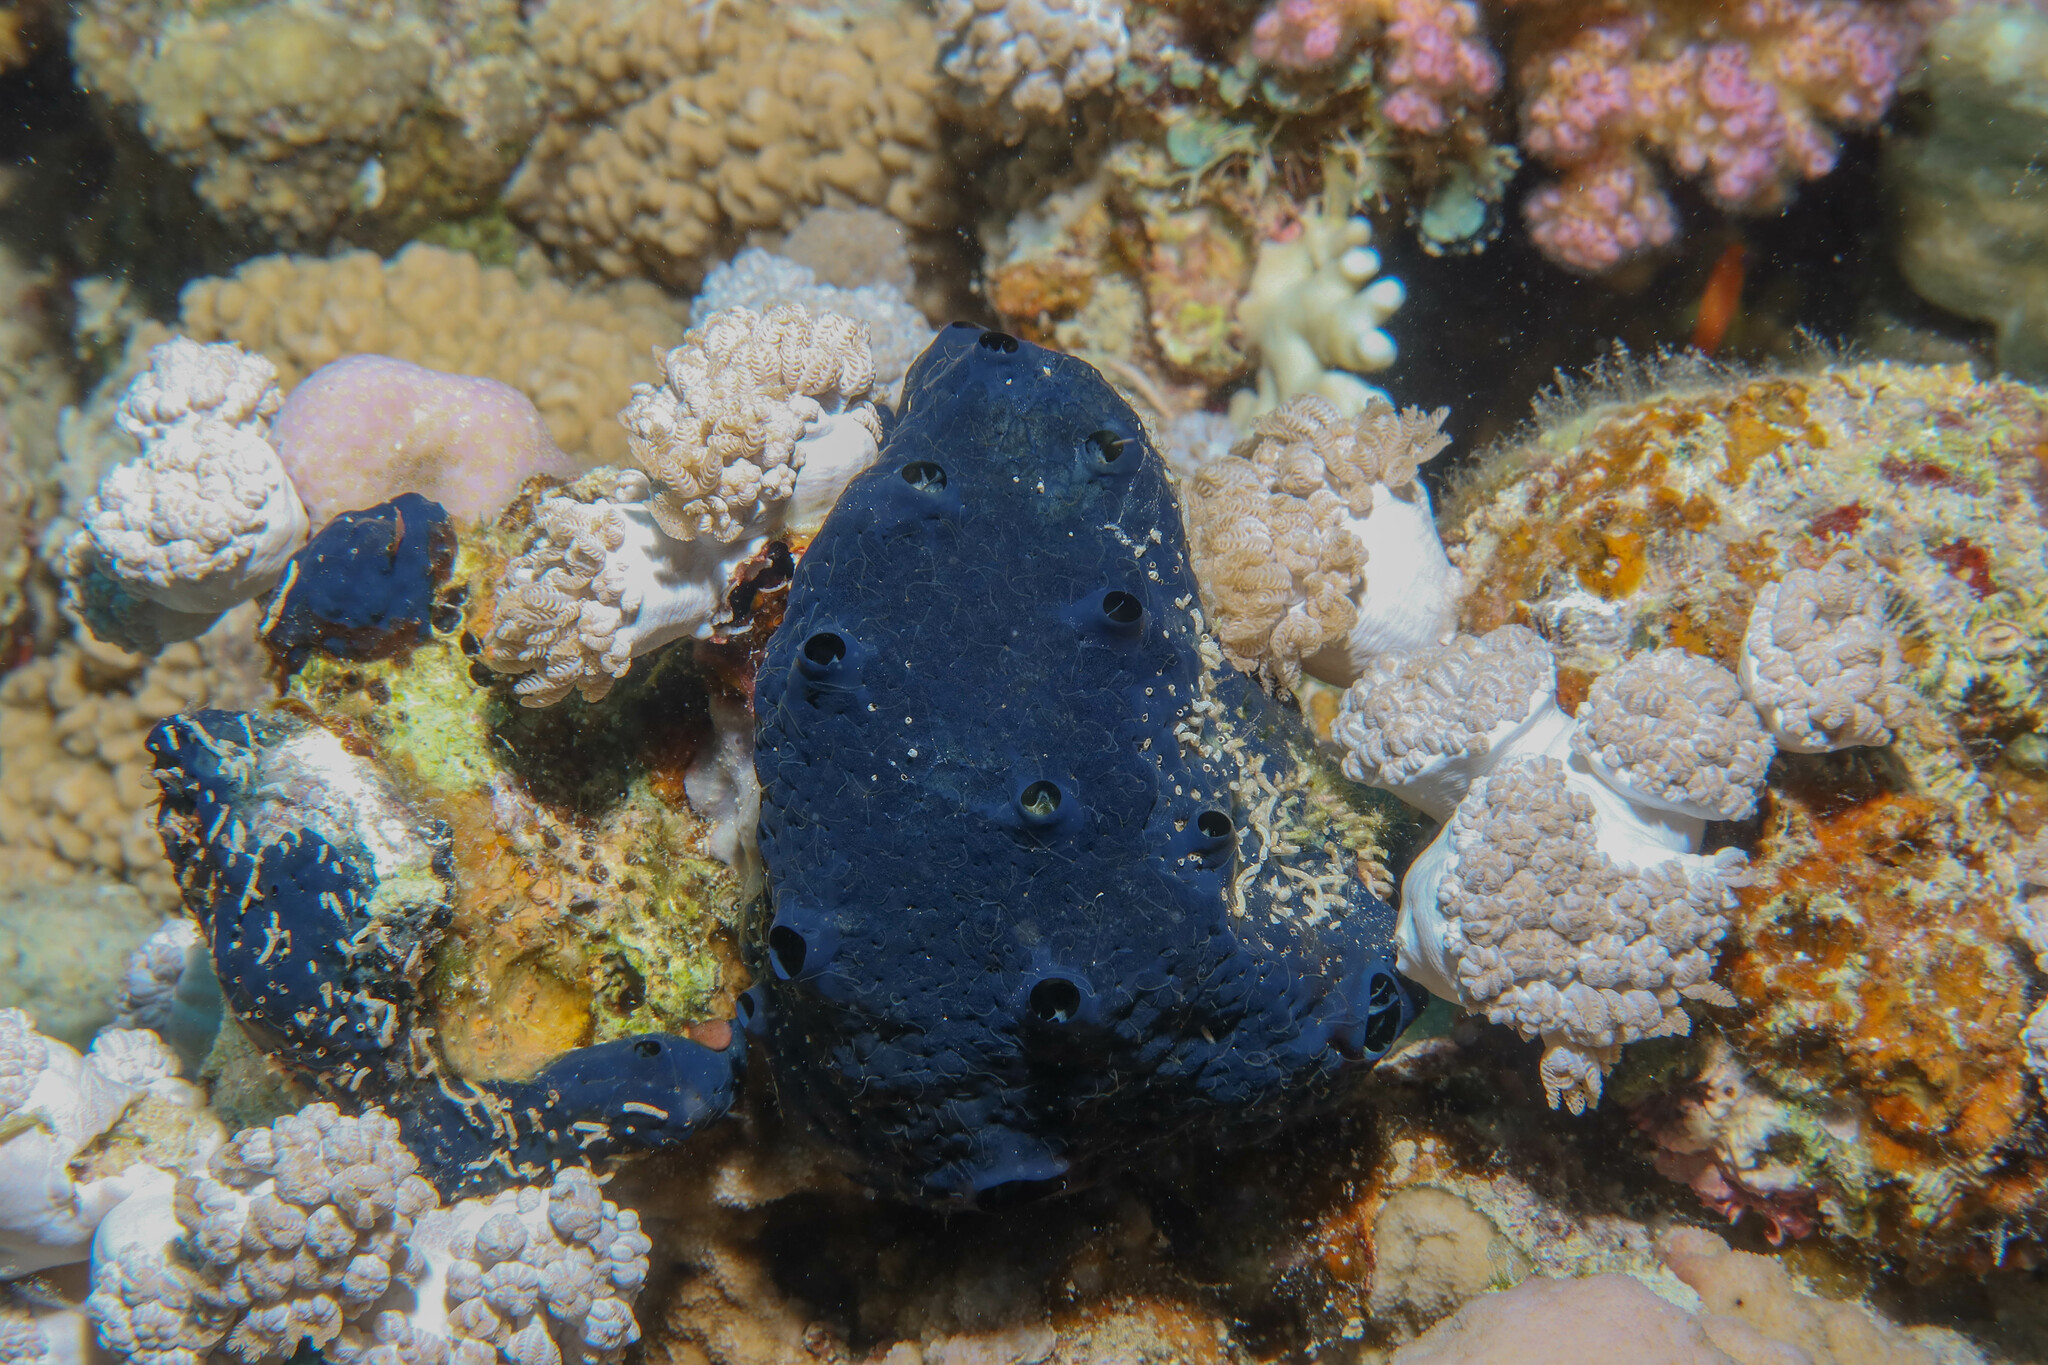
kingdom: Animalia
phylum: Porifera
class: Demospongiae
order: Poecilosclerida
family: Hymedesmiidae
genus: Hemimycale
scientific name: Hemimycale arabica
